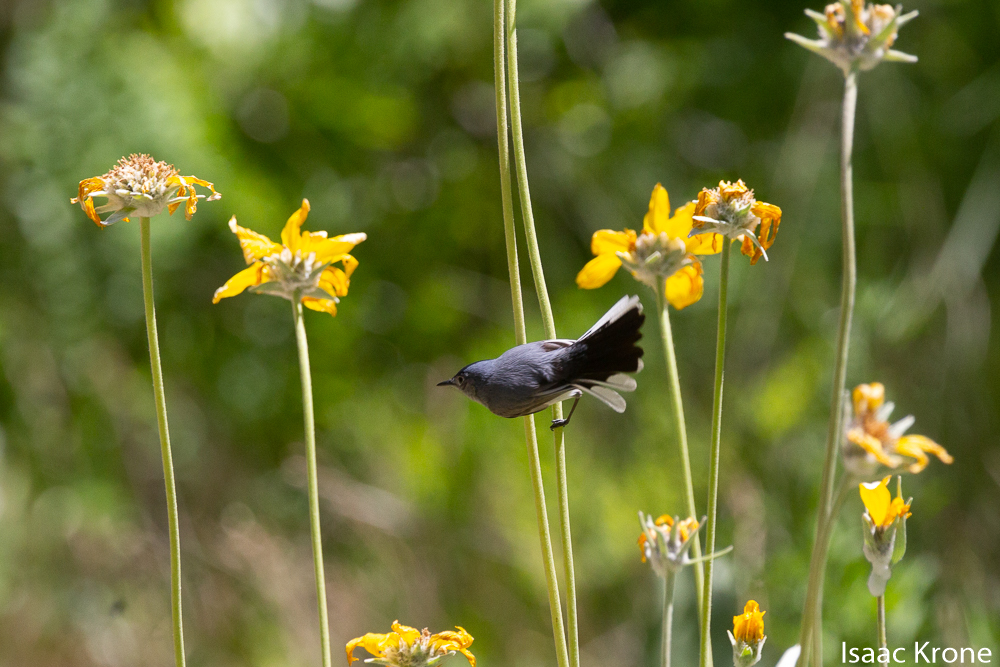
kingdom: Animalia
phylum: Chordata
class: Aves
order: Passeriformes
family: Polioptilidae
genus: Polioptila
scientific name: Polioptila caerulea
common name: Blue-gray gnatcatcher
